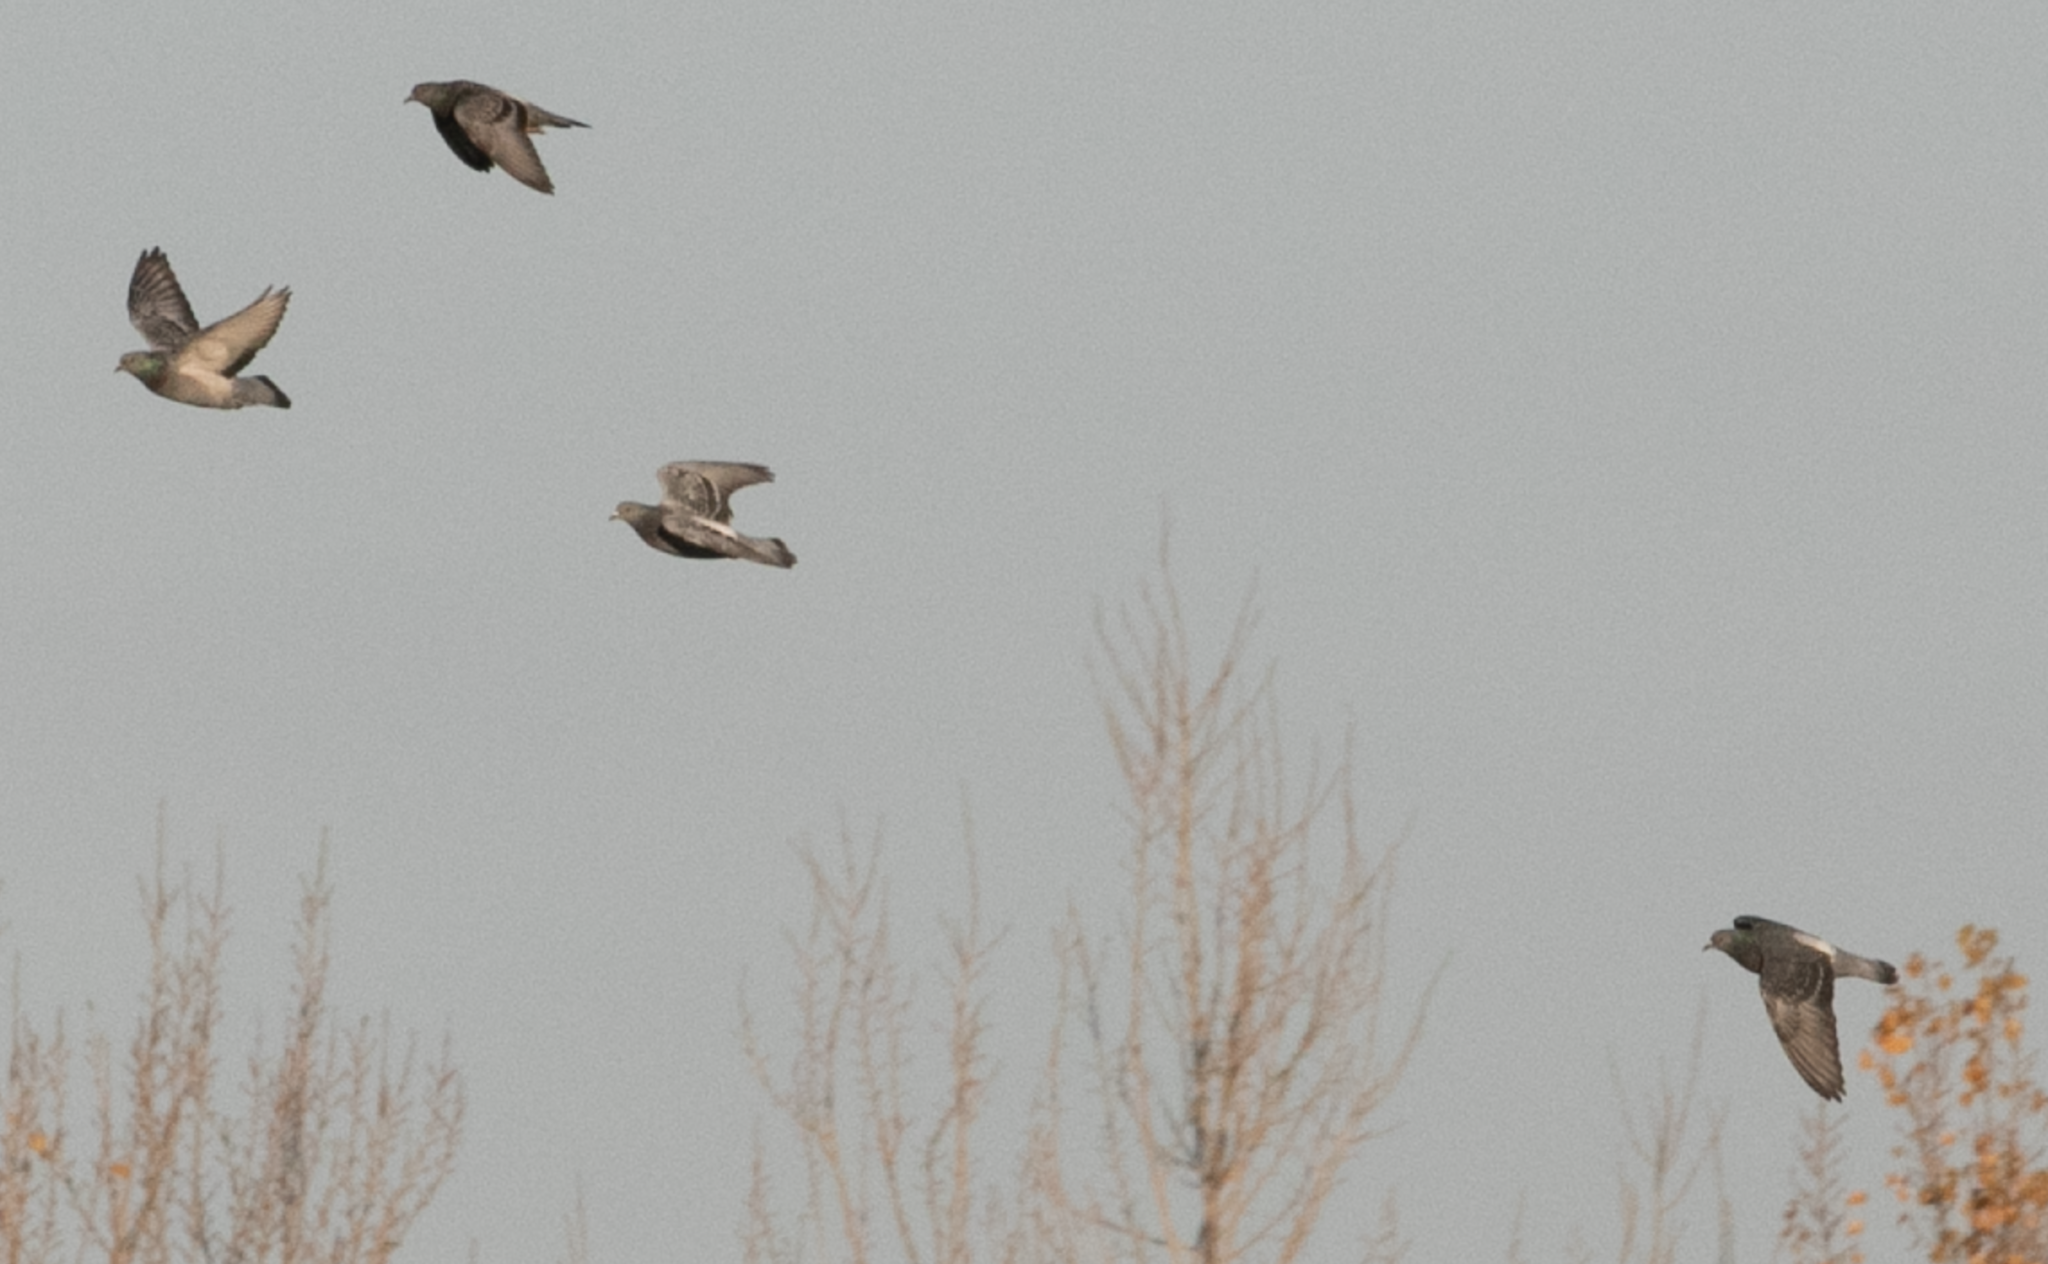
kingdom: Animalia
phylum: Chordata
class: Aves
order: Columbiformes
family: Columbidae
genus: Columba
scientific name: Columba livia
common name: Rock pigeon
